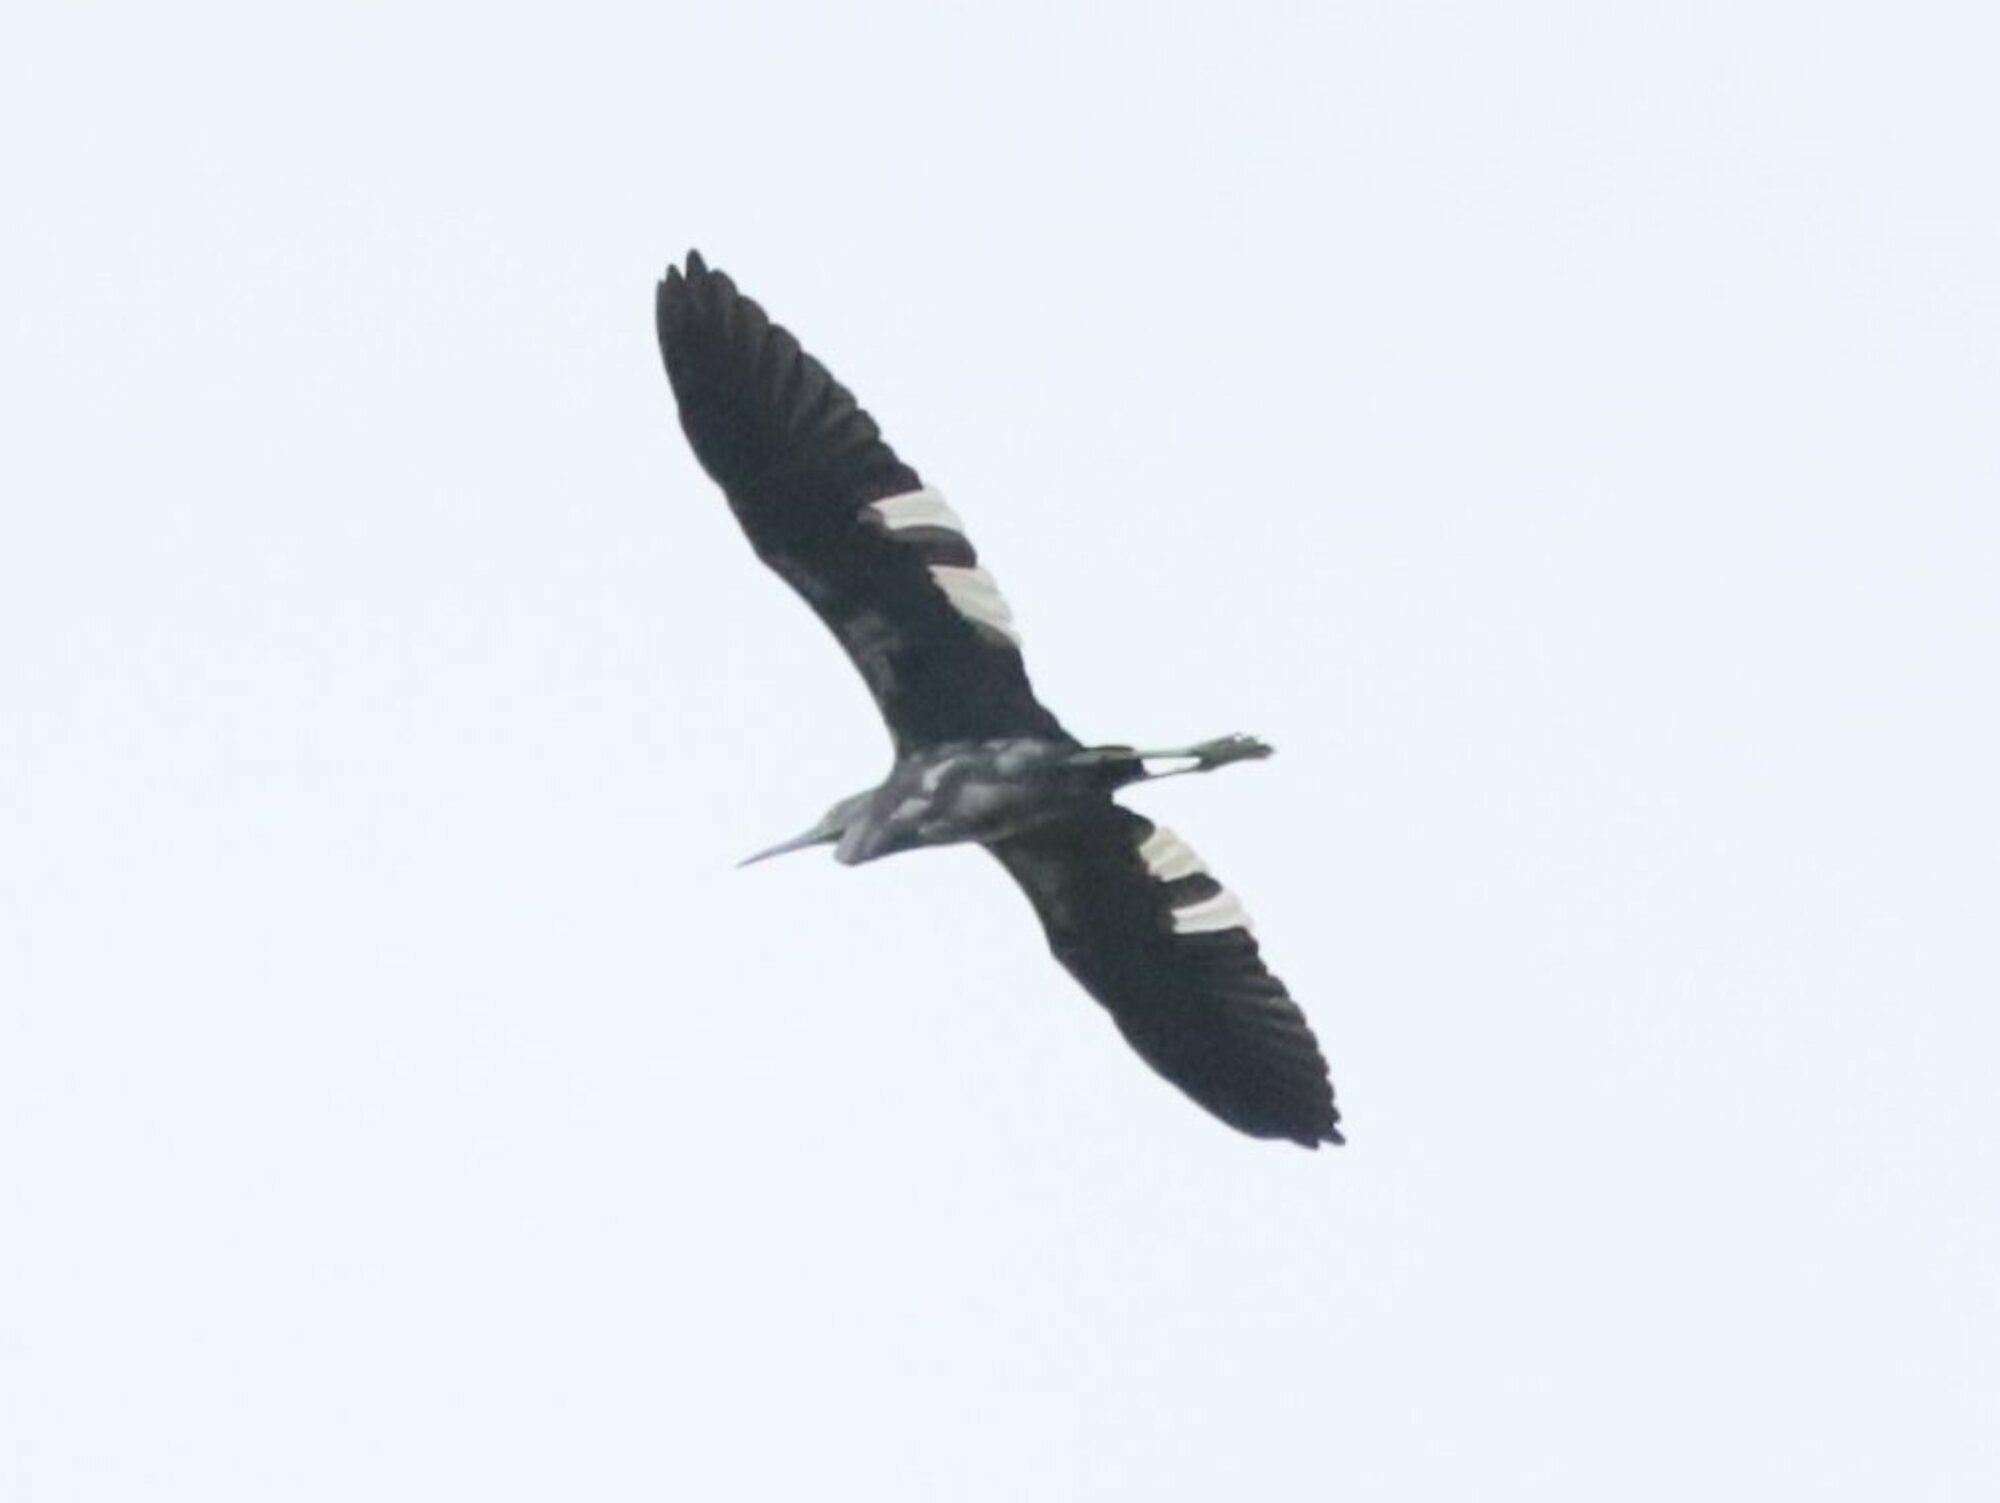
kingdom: Animalia
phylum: Chordata
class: Aves
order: Pelecaniformes
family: Ardeidae
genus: Egretta
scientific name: Egretta caerulea
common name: Little blue heron
